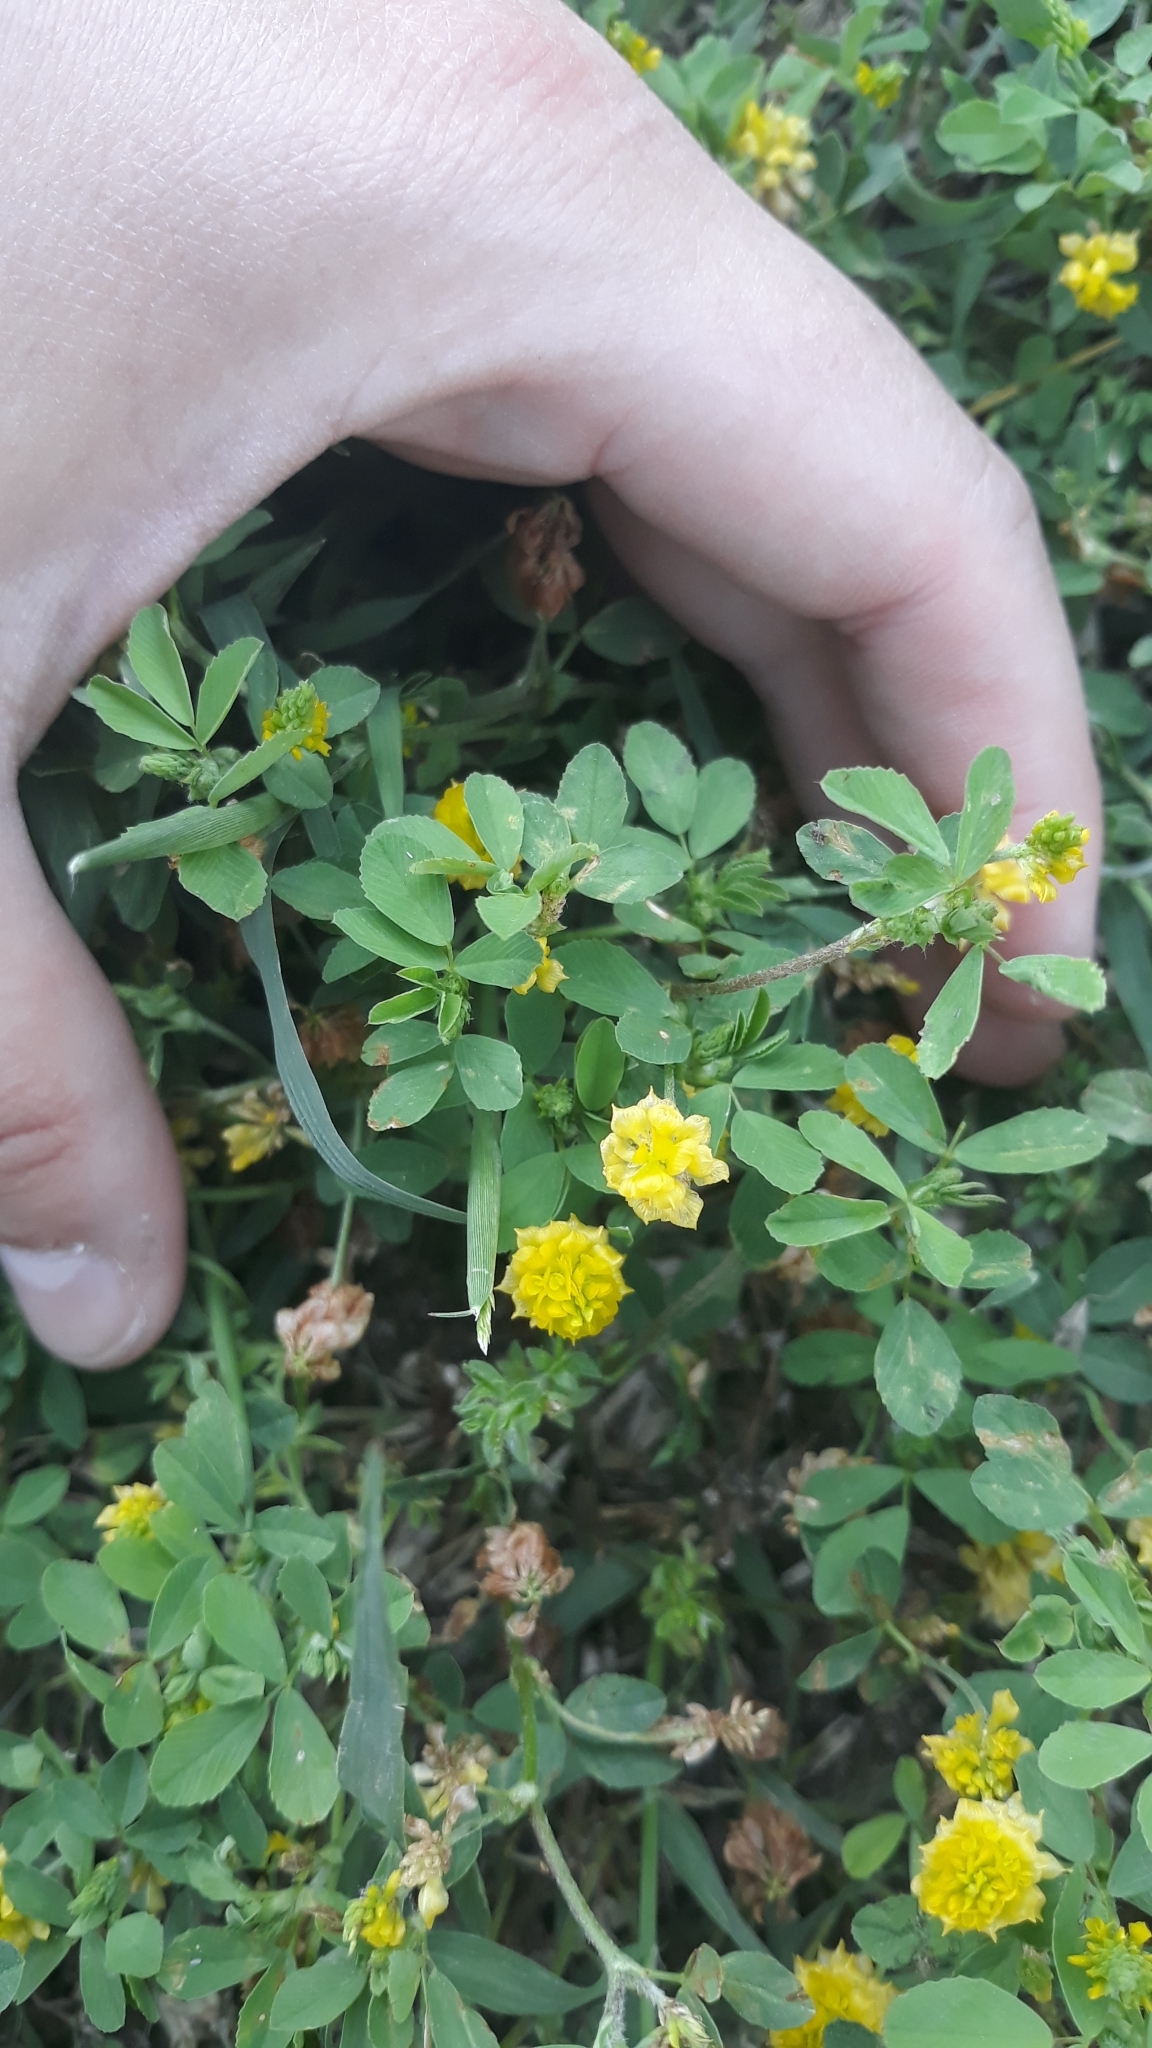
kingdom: Plantae
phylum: Tracheophyta
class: Magnoliopsida
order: Fabales
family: Fabaceae
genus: Trifolium
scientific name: Trifolium campestre
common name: Field clover
